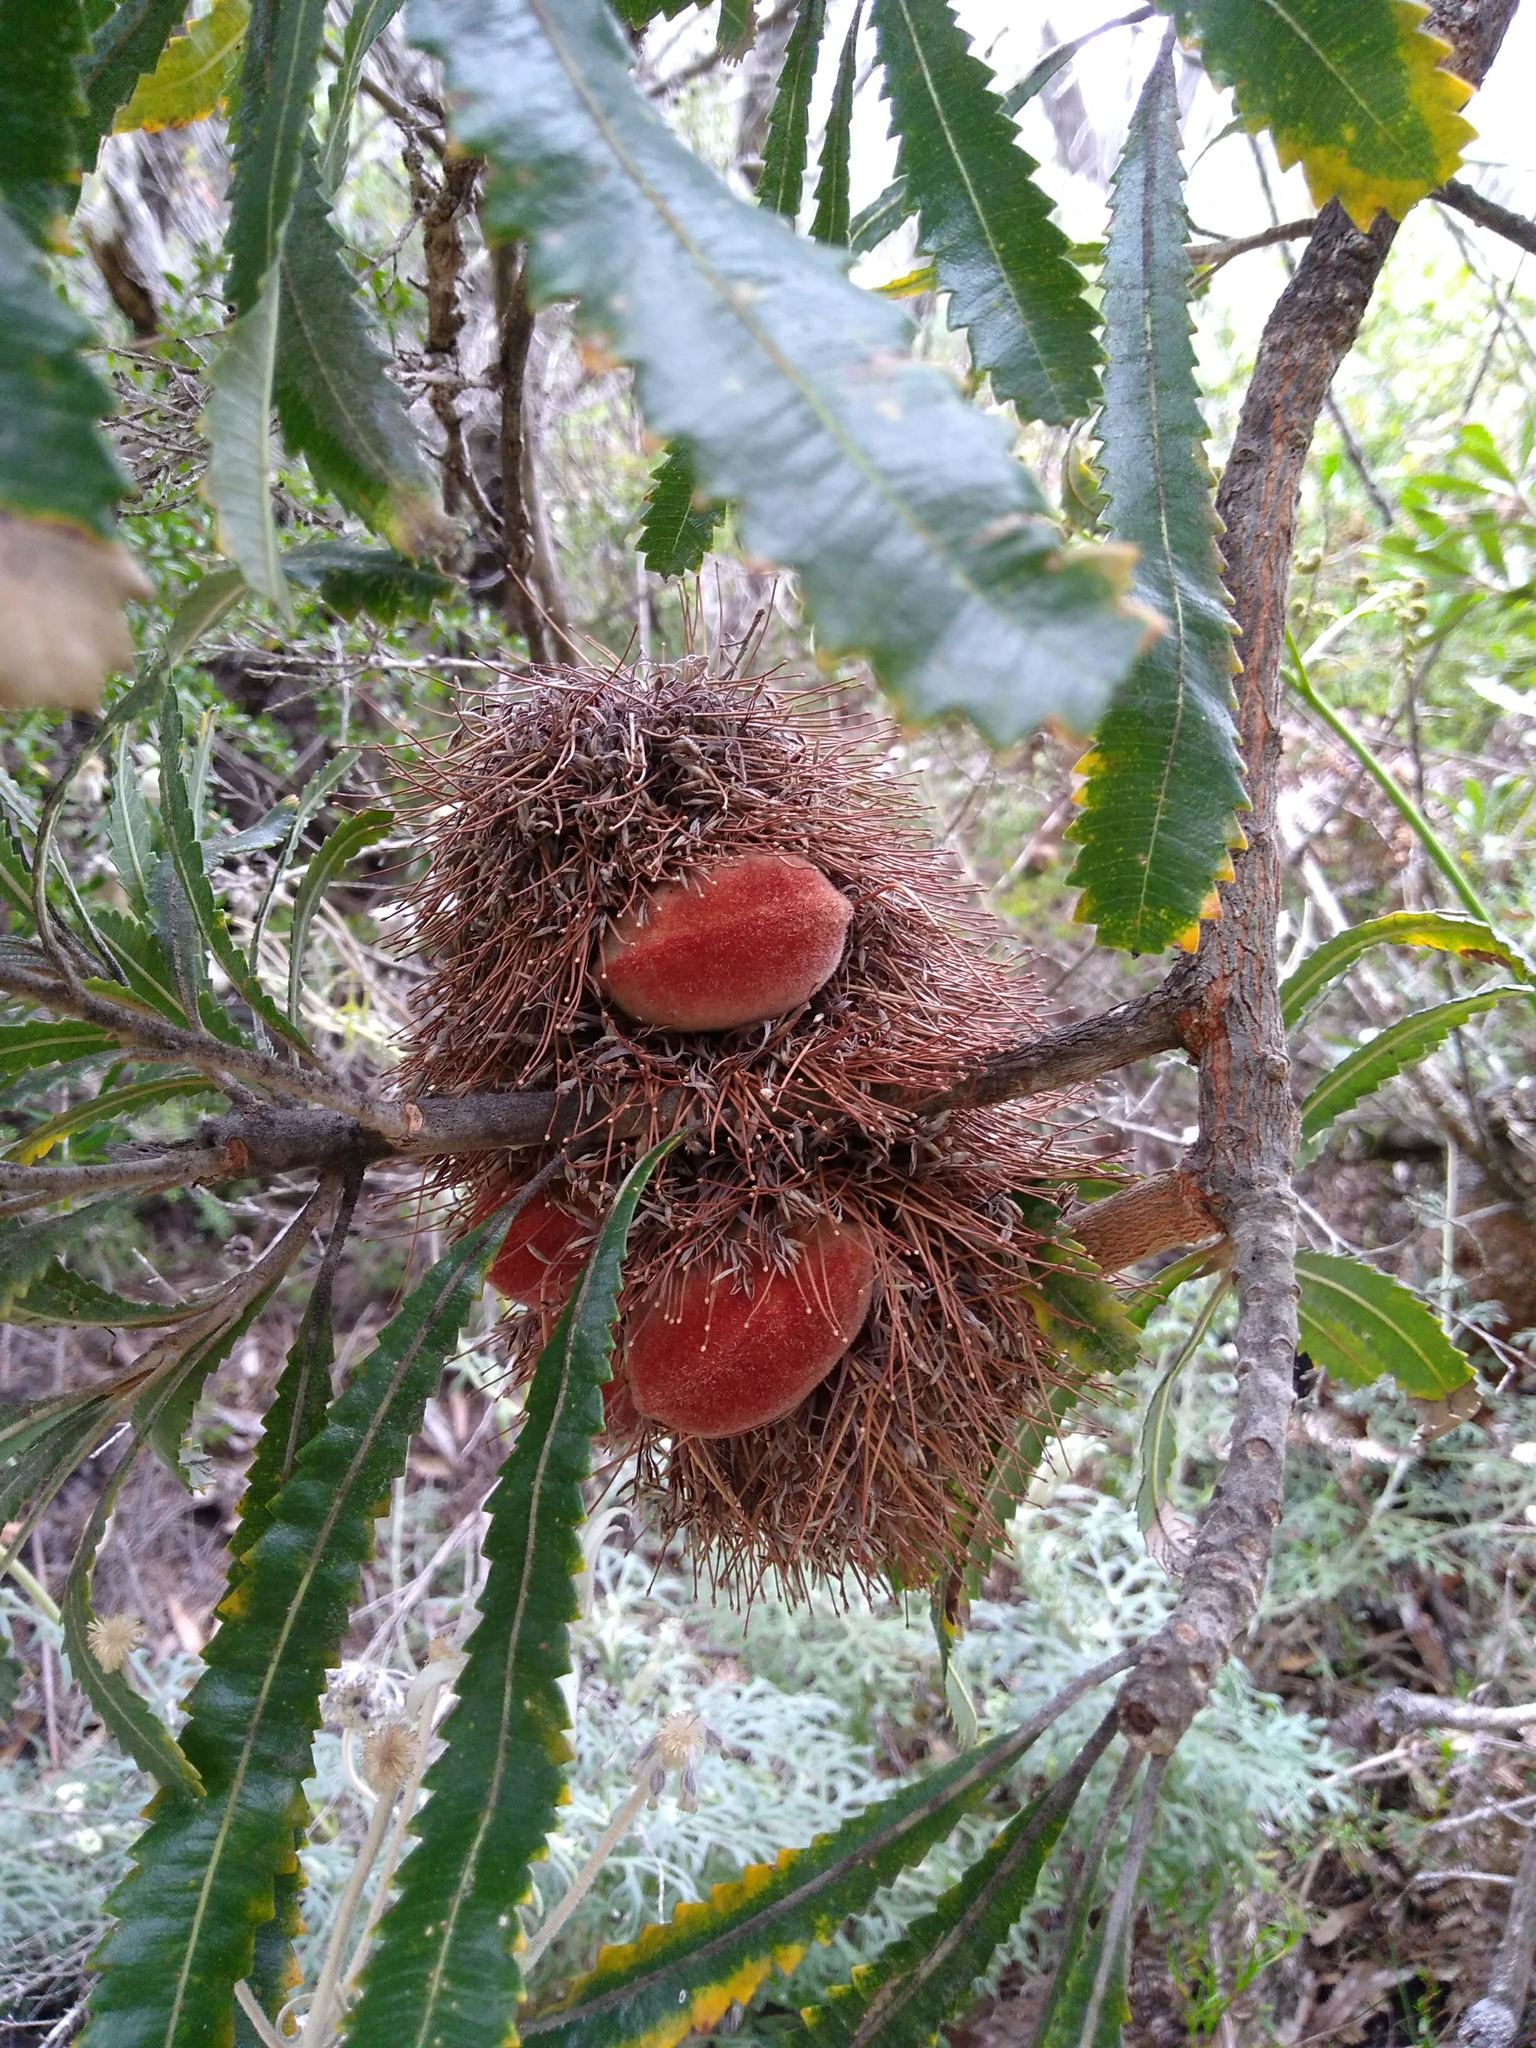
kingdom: Plantae
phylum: Tracheophyta
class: Magnoliopsida
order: Proteales
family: Proteaceae
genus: Banksia
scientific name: Banksia aemula
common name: Wallum banksia
